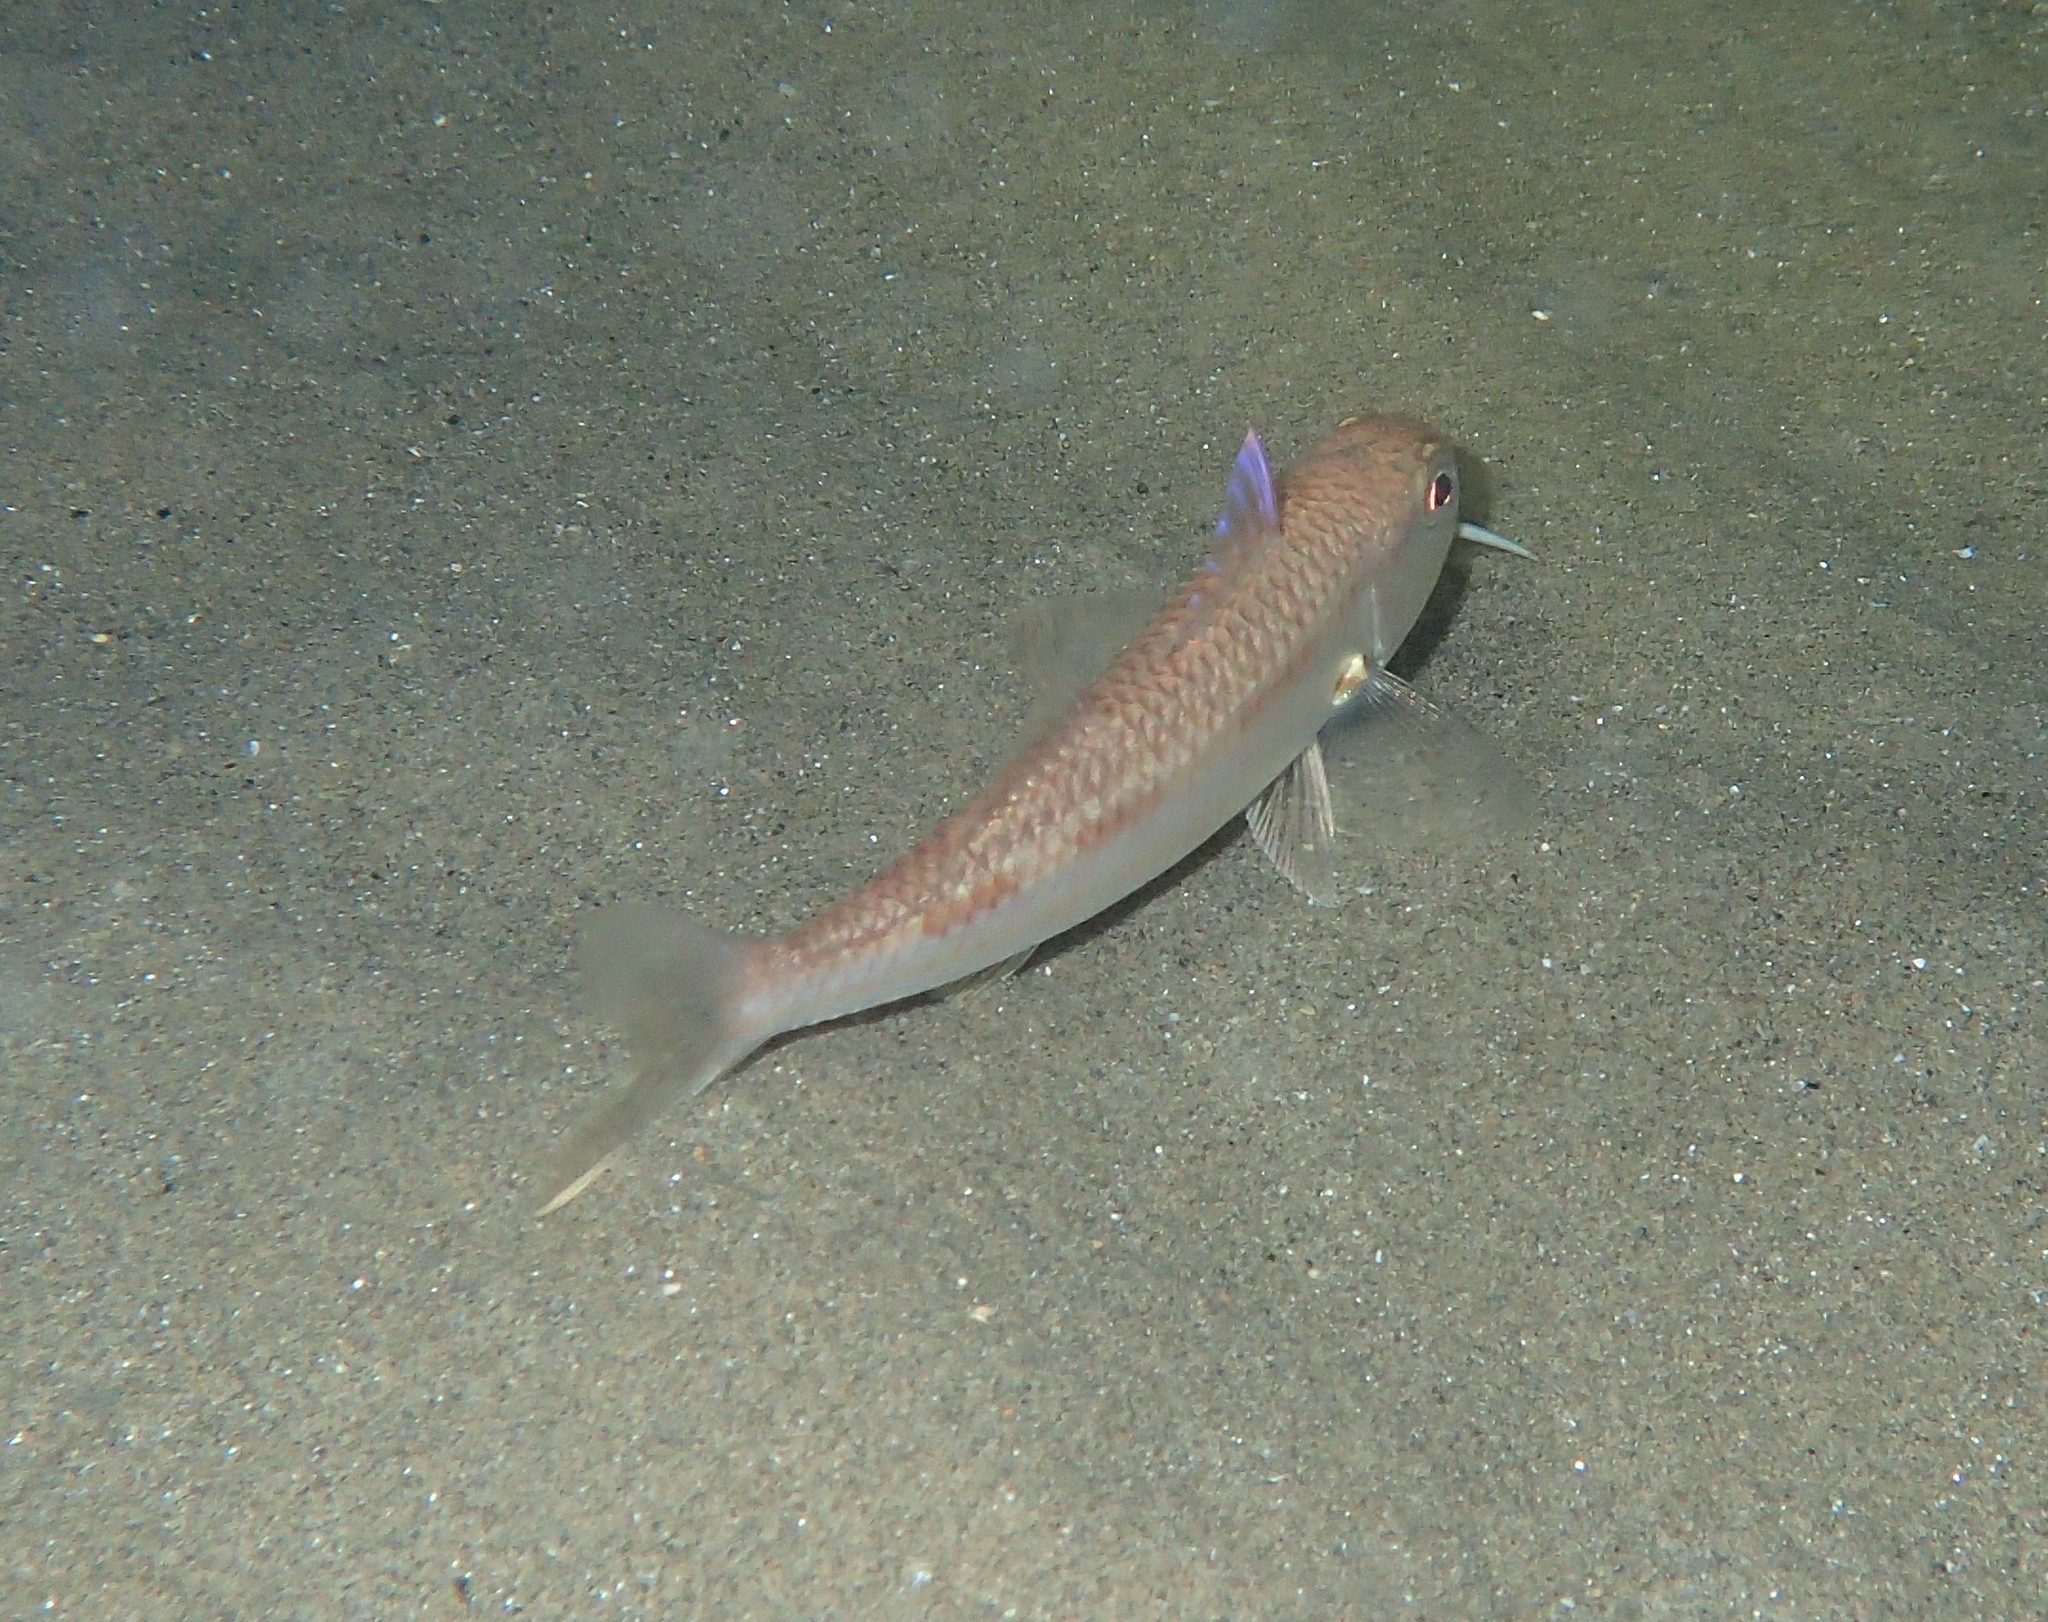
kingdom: Animalia
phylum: Chordata
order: Perciformes
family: Mullidae
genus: Mullus
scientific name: Mullus barbatus
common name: Blunt-snouted mullet
